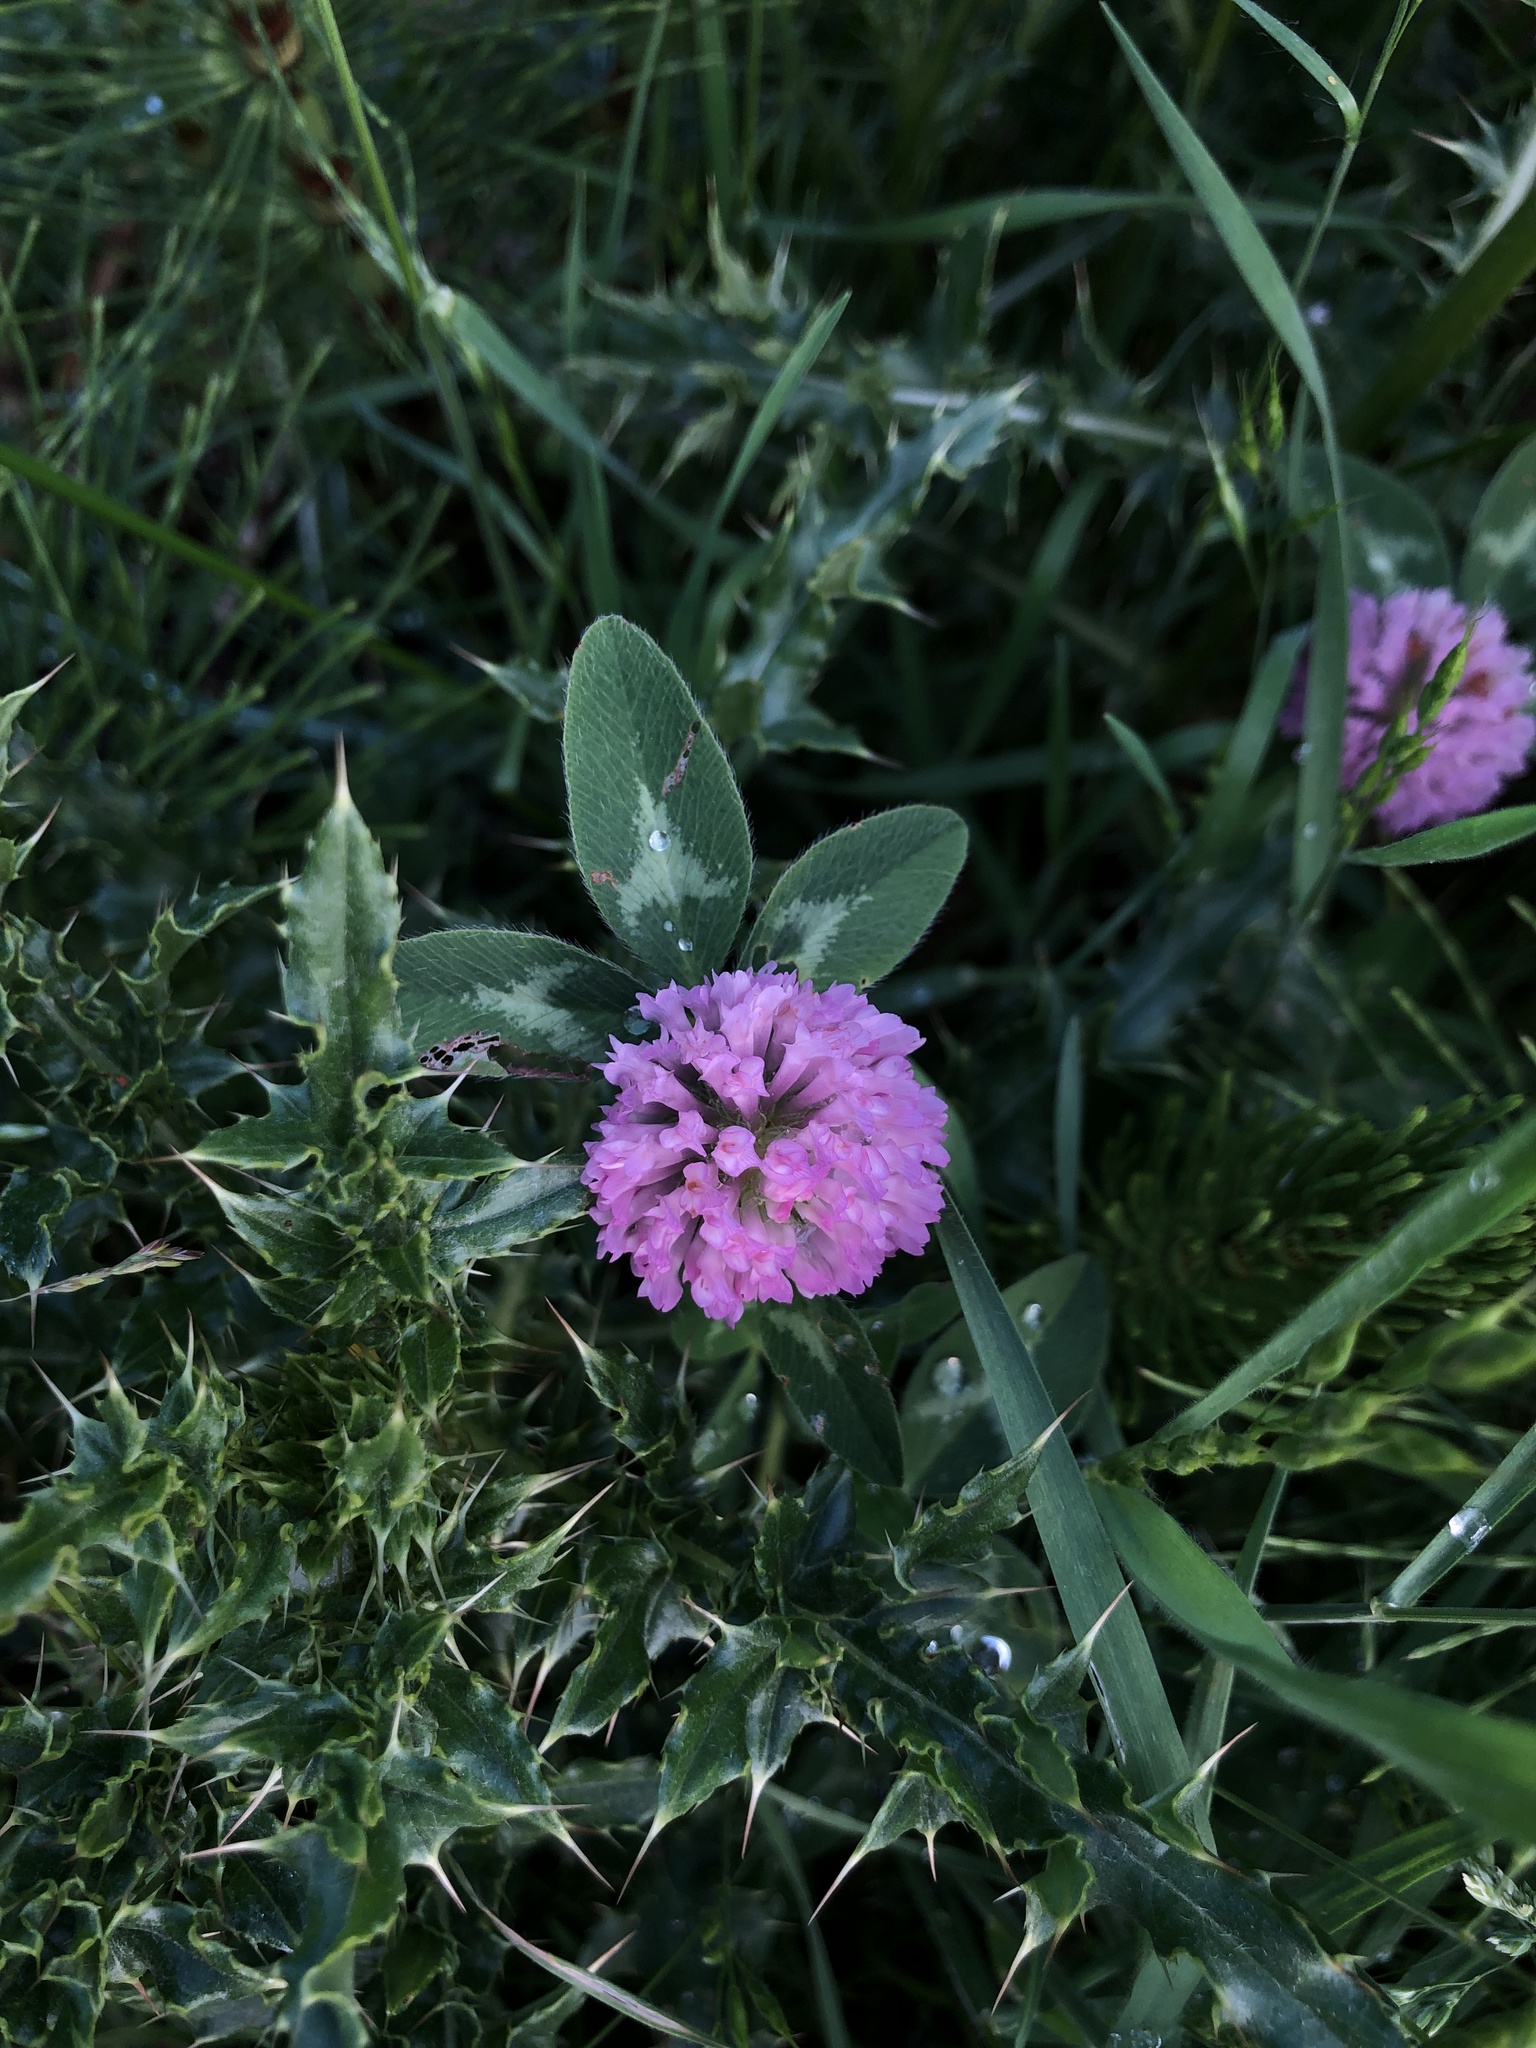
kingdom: Plantae
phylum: Tracheophyta
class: Magnoliopsida
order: Fabales
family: Fabaceae
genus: Trifolium
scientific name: Trifolium pratense
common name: Red clover
